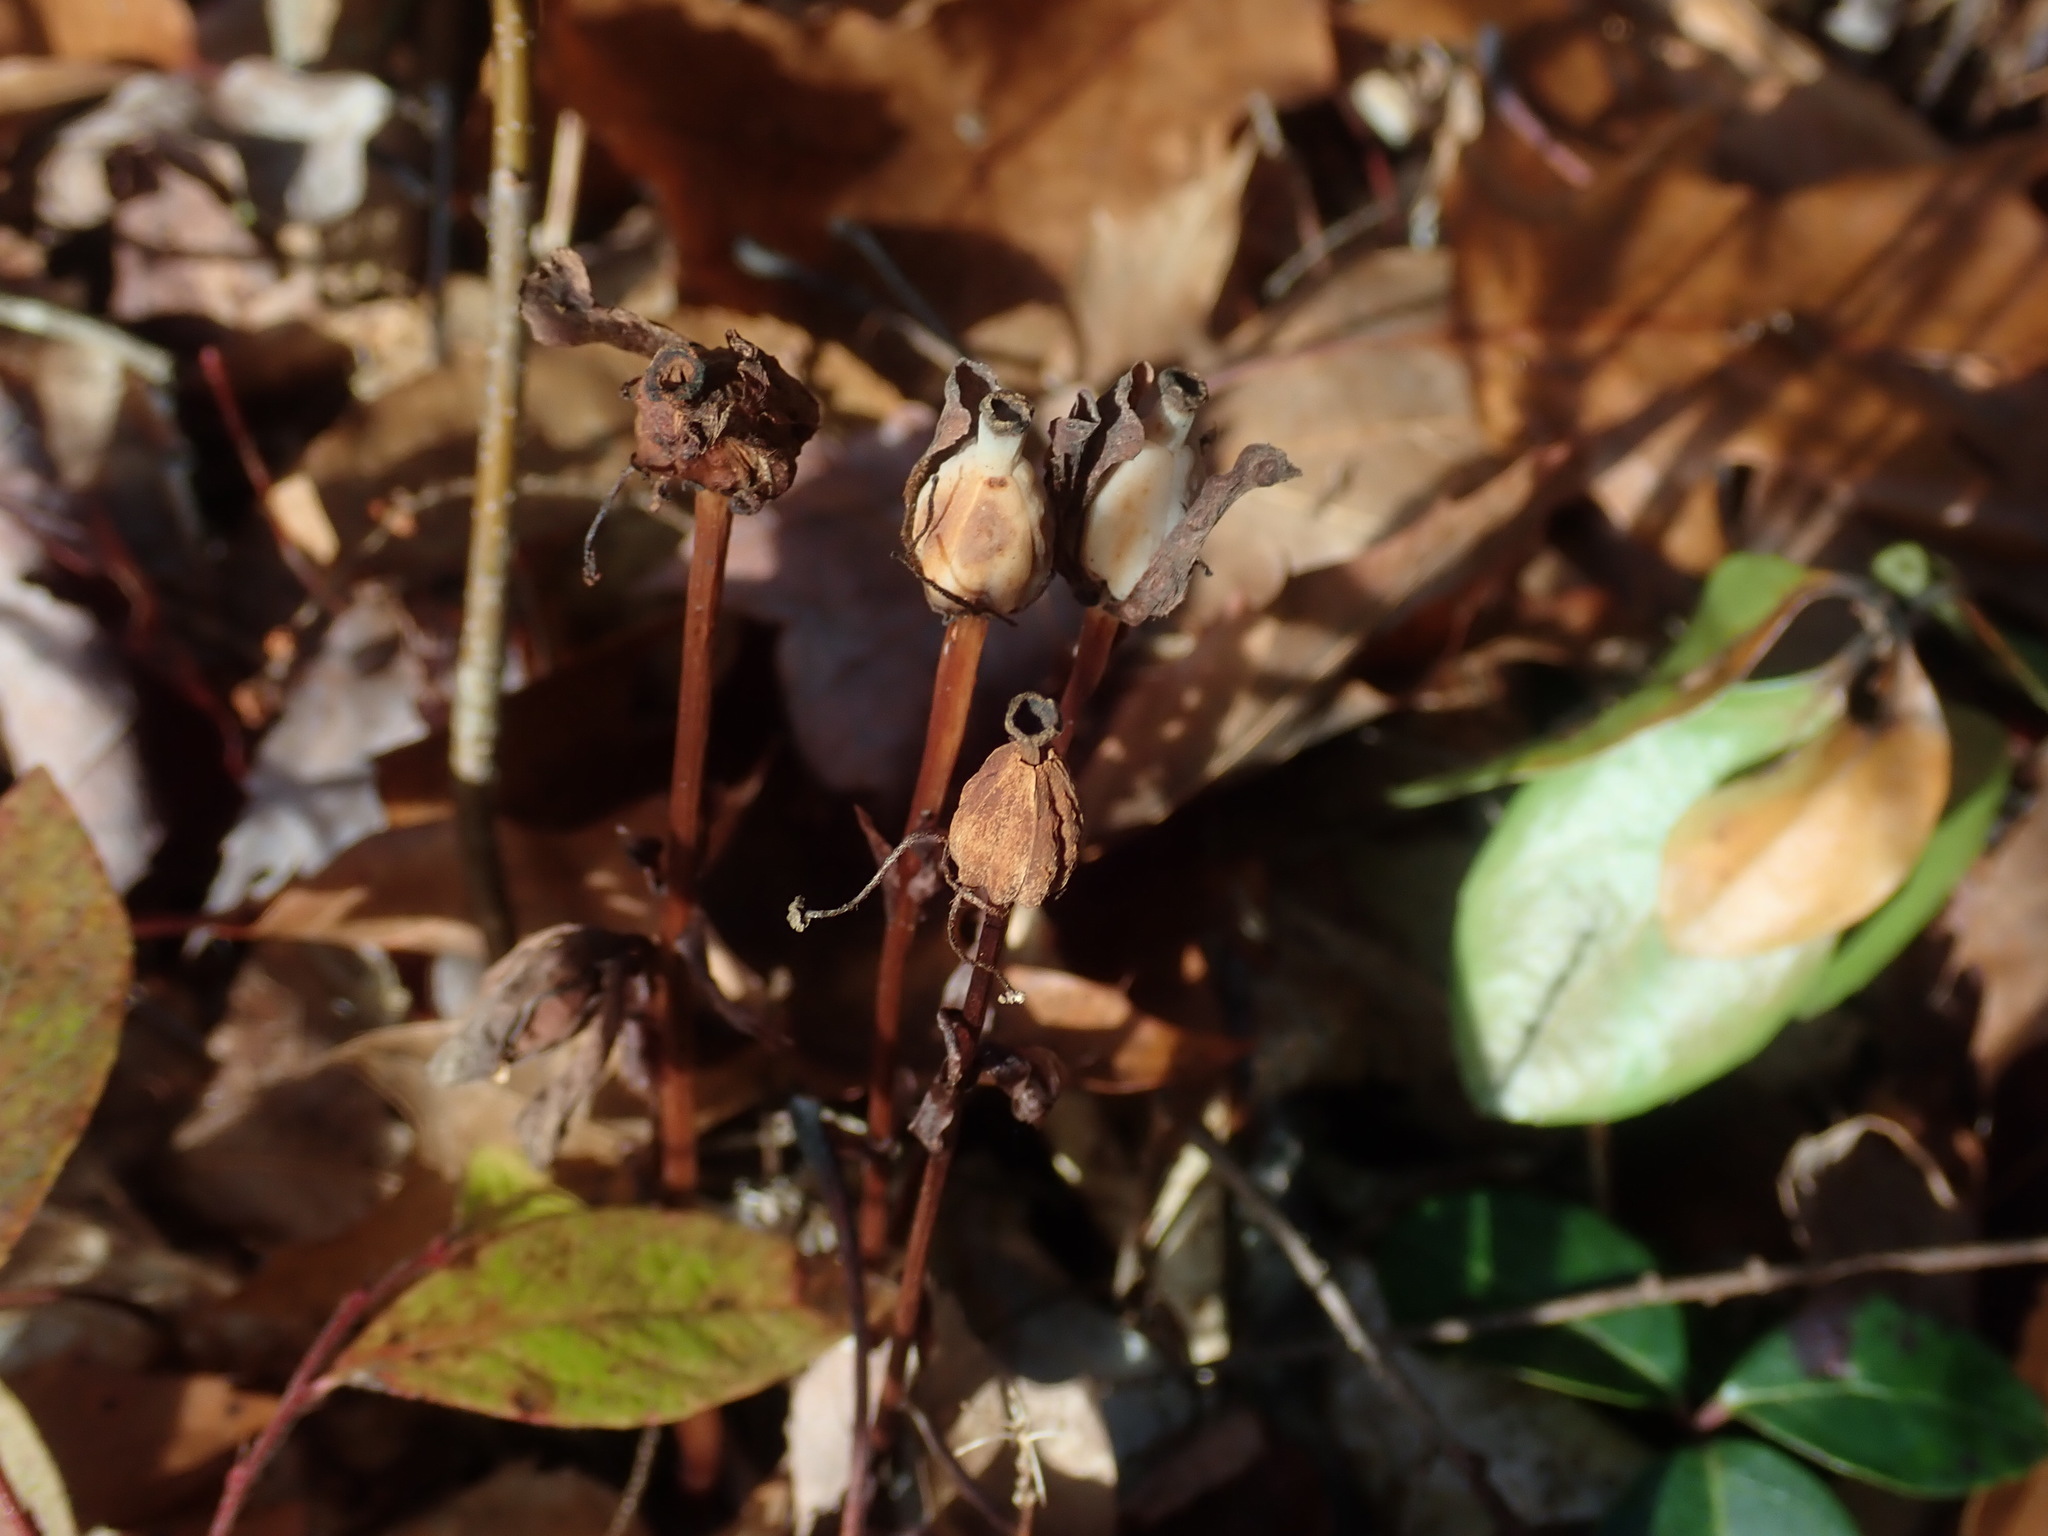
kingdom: Plantae
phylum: Tracheophyta
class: Magnoliopsida
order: Ericales
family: Ericaceae
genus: Monotropa
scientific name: Monotropa uniflora
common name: Convulsion root
